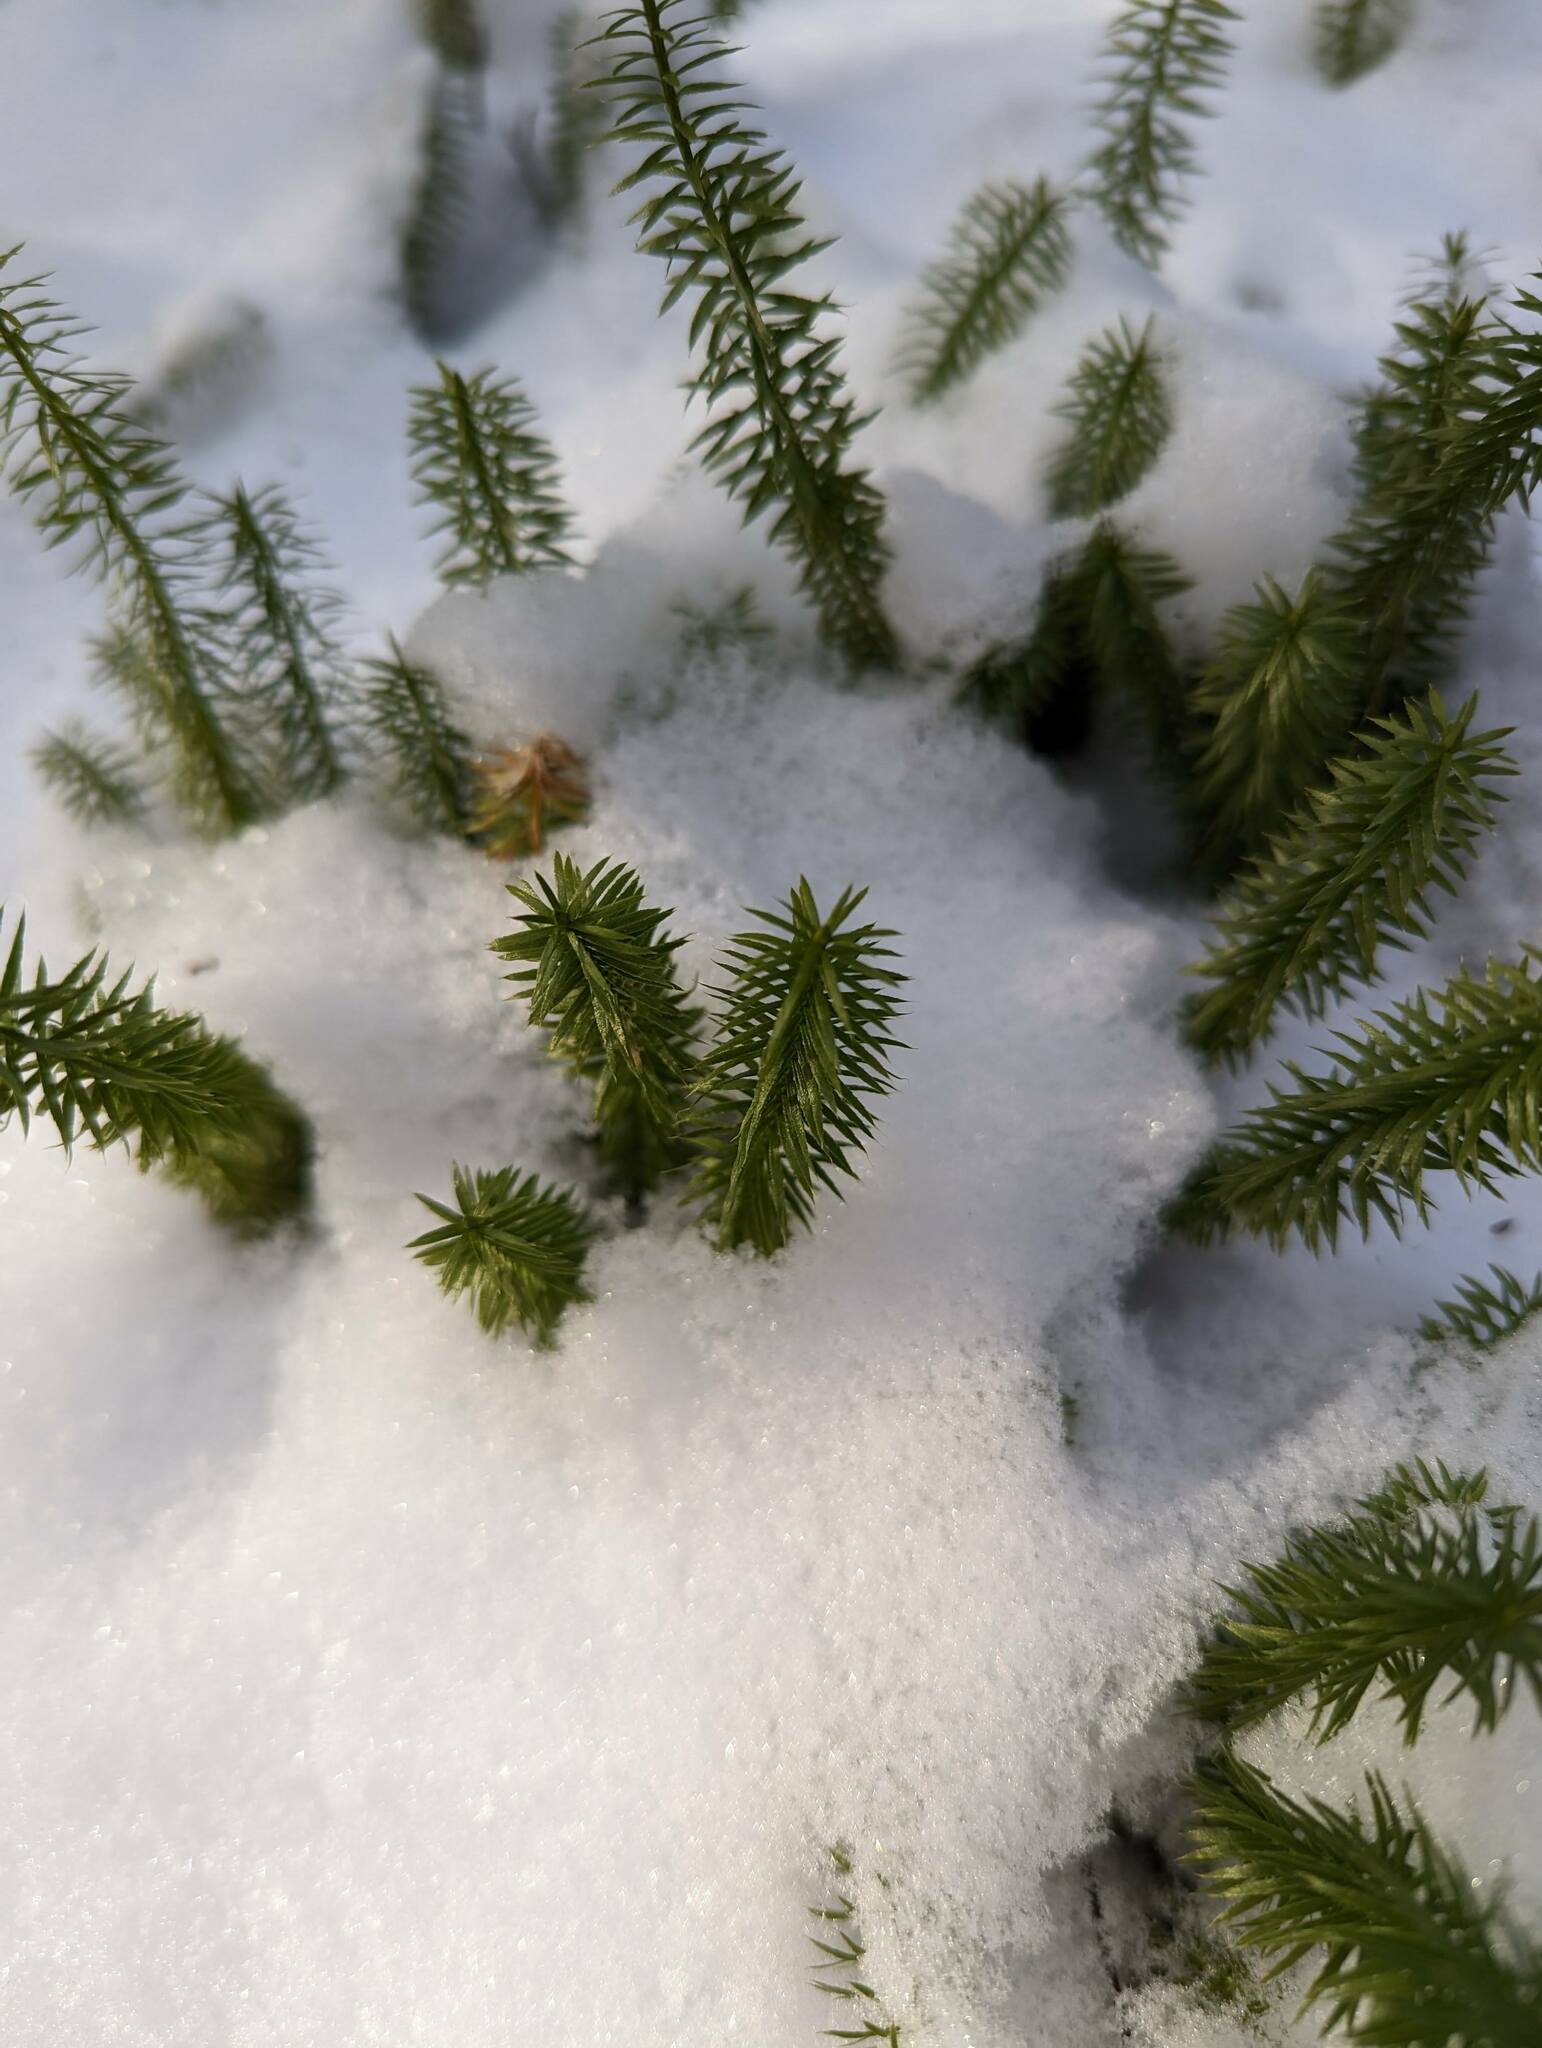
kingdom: Plantae
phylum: Tracheophyta
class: Lycopodiopsida
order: Lycopodiales
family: Lycopodiaceae
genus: Spinulum
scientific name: Spinulum annotinum
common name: Interrupted club-moss
